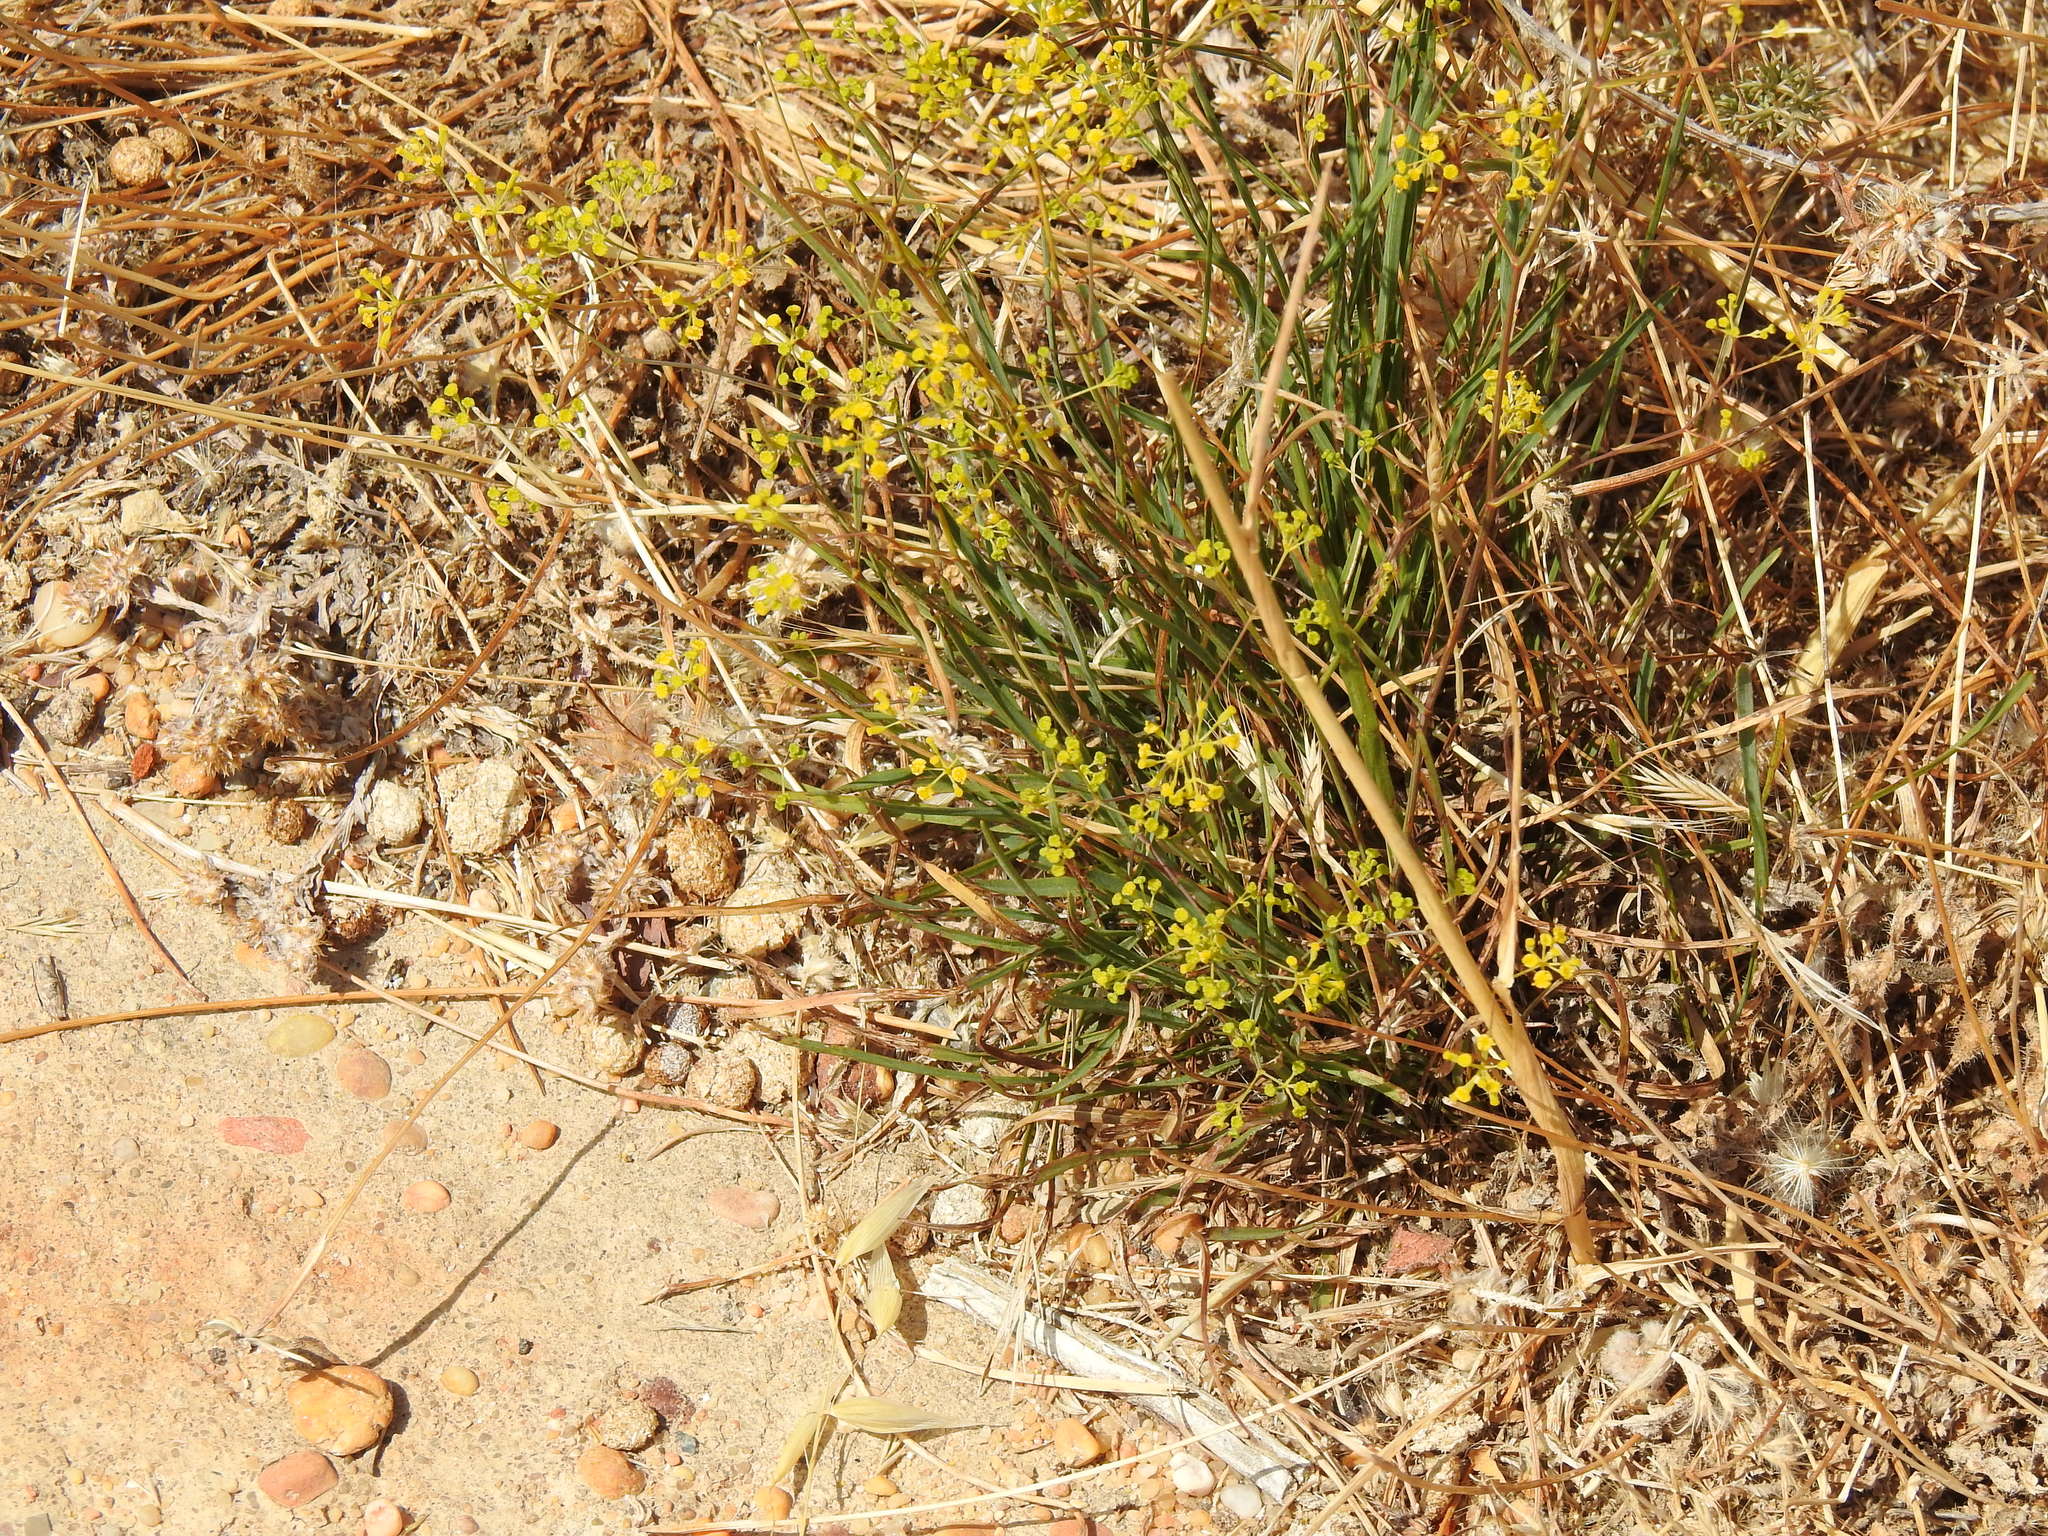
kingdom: Plantae
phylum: Tracheophyta
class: Magnoliopsida
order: Apiales
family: Apiaceae
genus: Bupleurum
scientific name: Bupleurum rigidum
